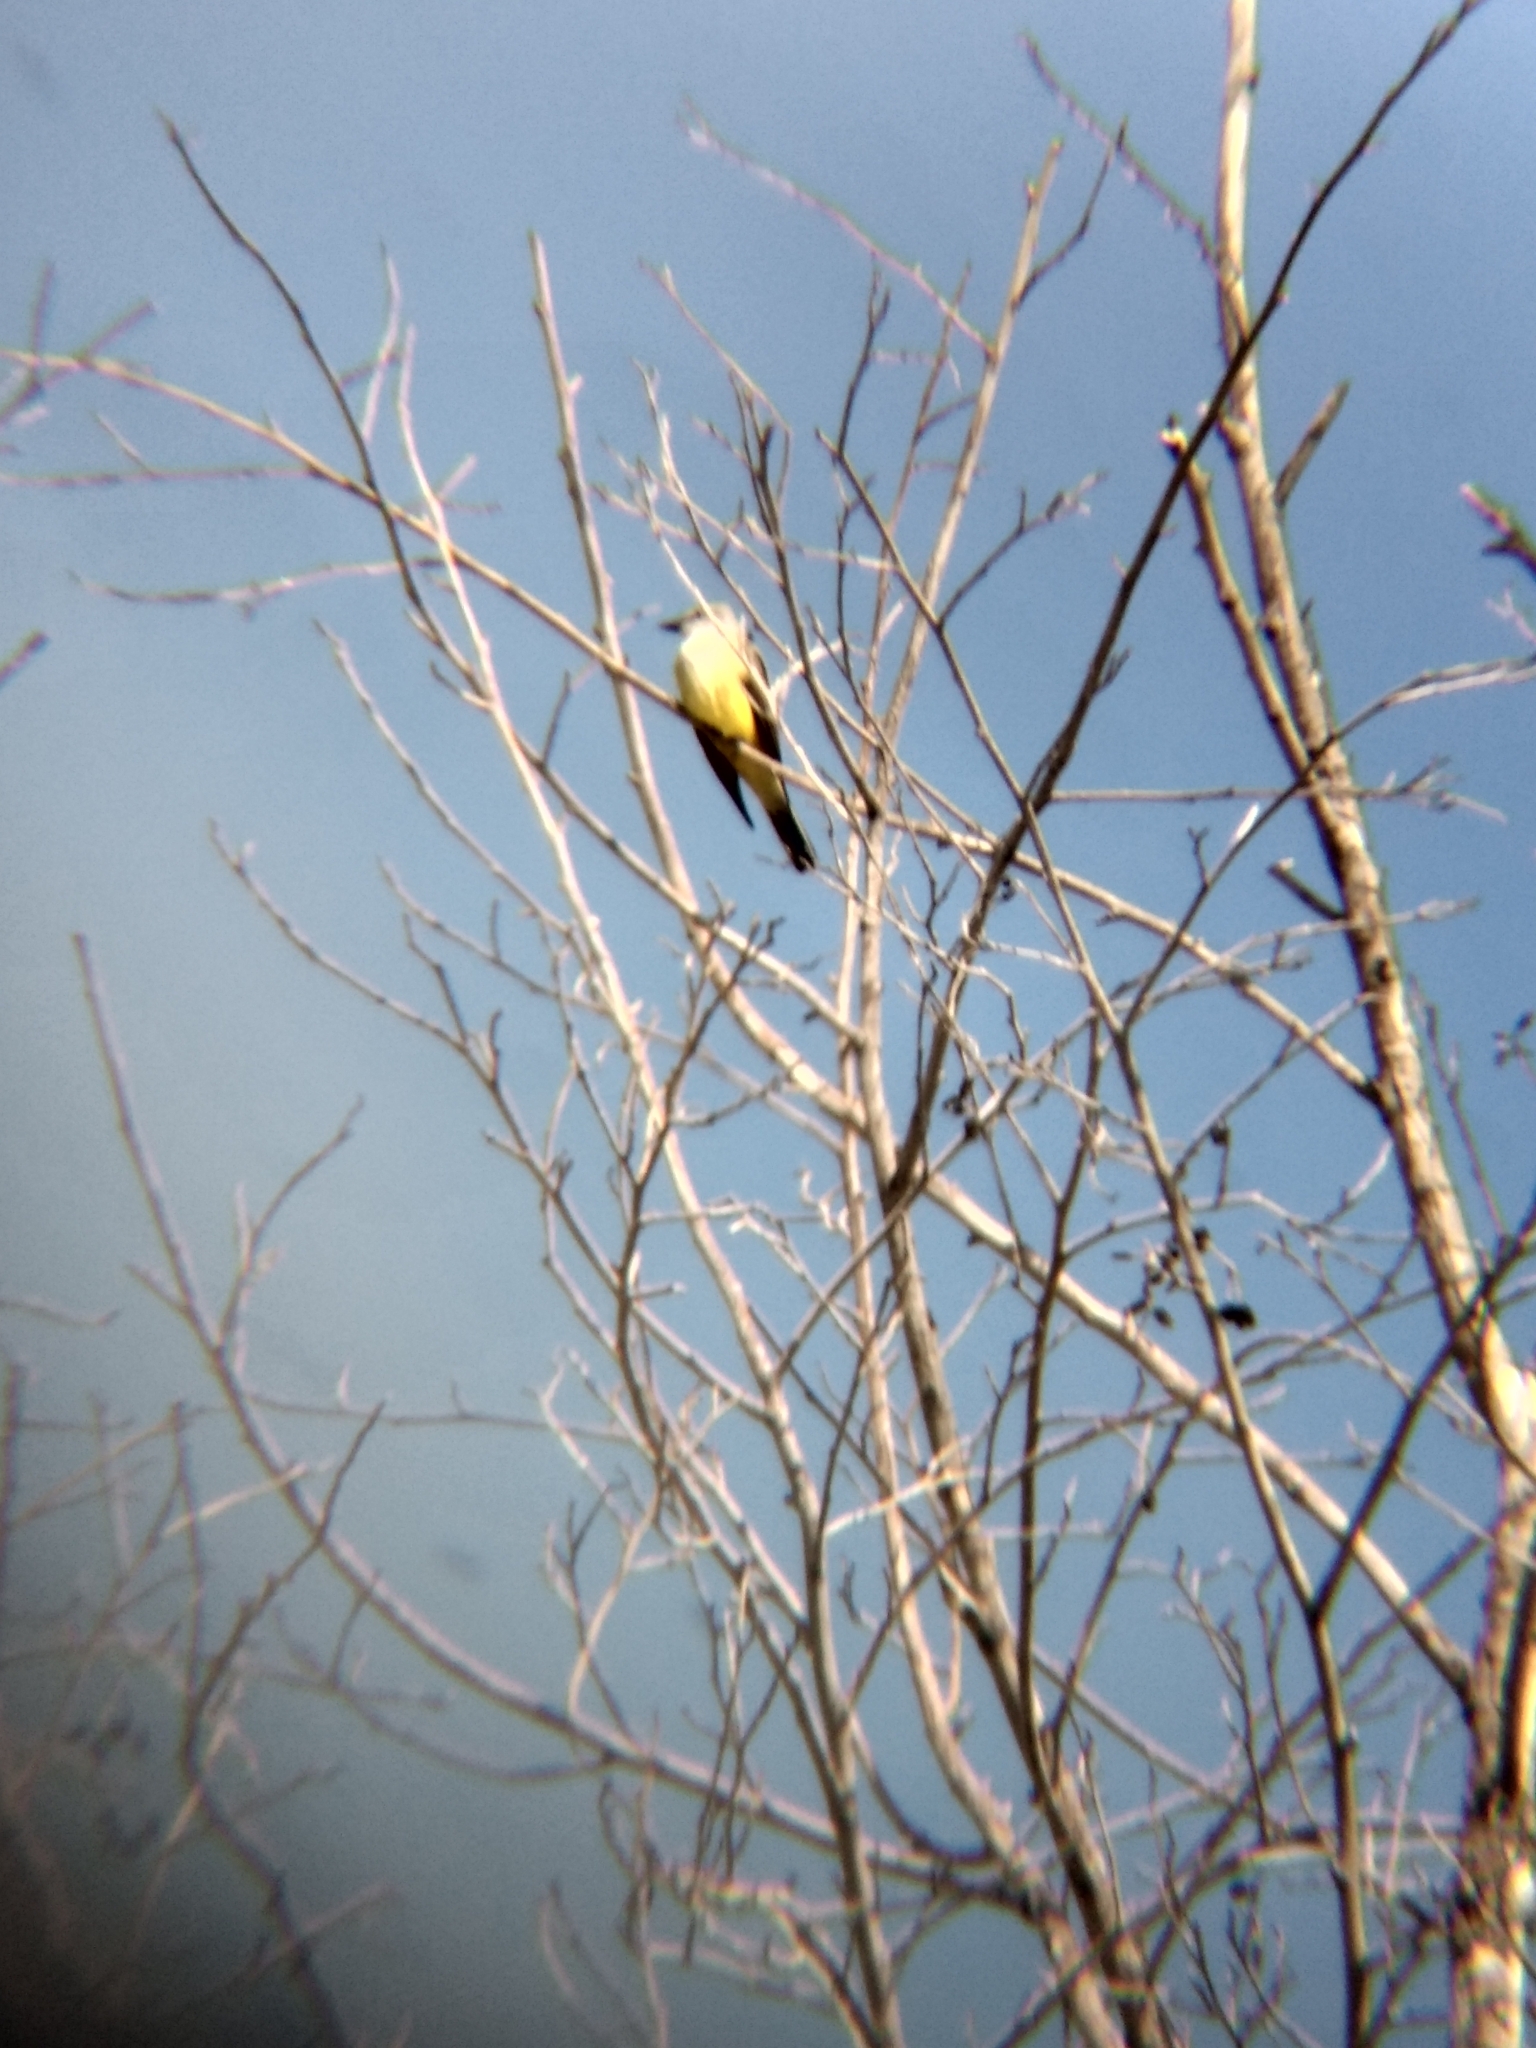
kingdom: Animalia
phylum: Chordata
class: Aves
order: Passeriformes
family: Tyrannidae
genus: Tyrannus
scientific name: Tyrannus verticalis
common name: Western kingbird
